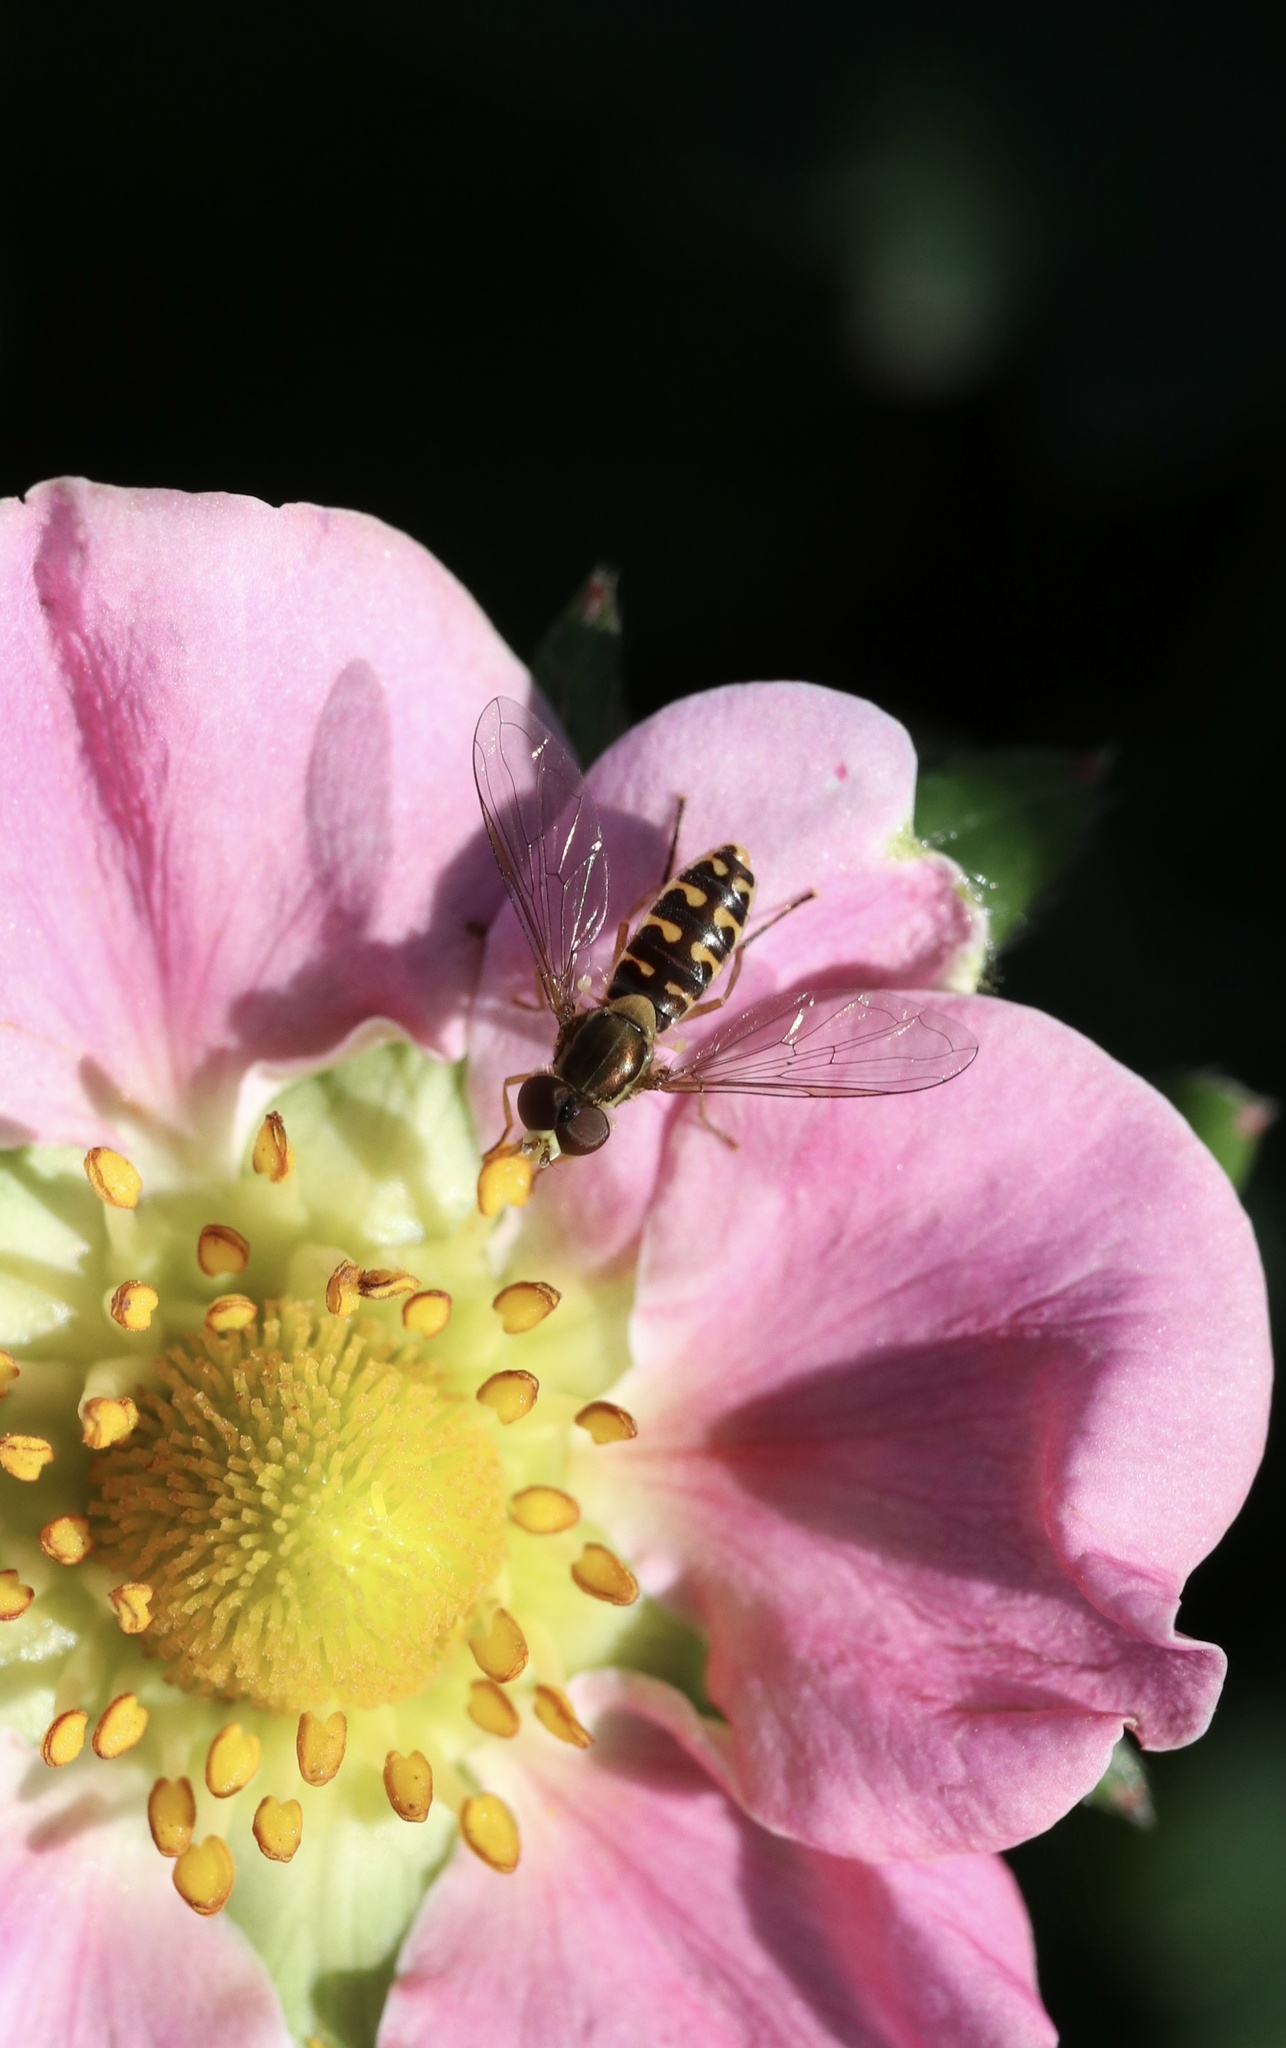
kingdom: Animalia
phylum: Arthropoda
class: Insecta
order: Diptera
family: Syrphidae
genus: Toxomerus
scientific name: Toxomerus vertebratus
